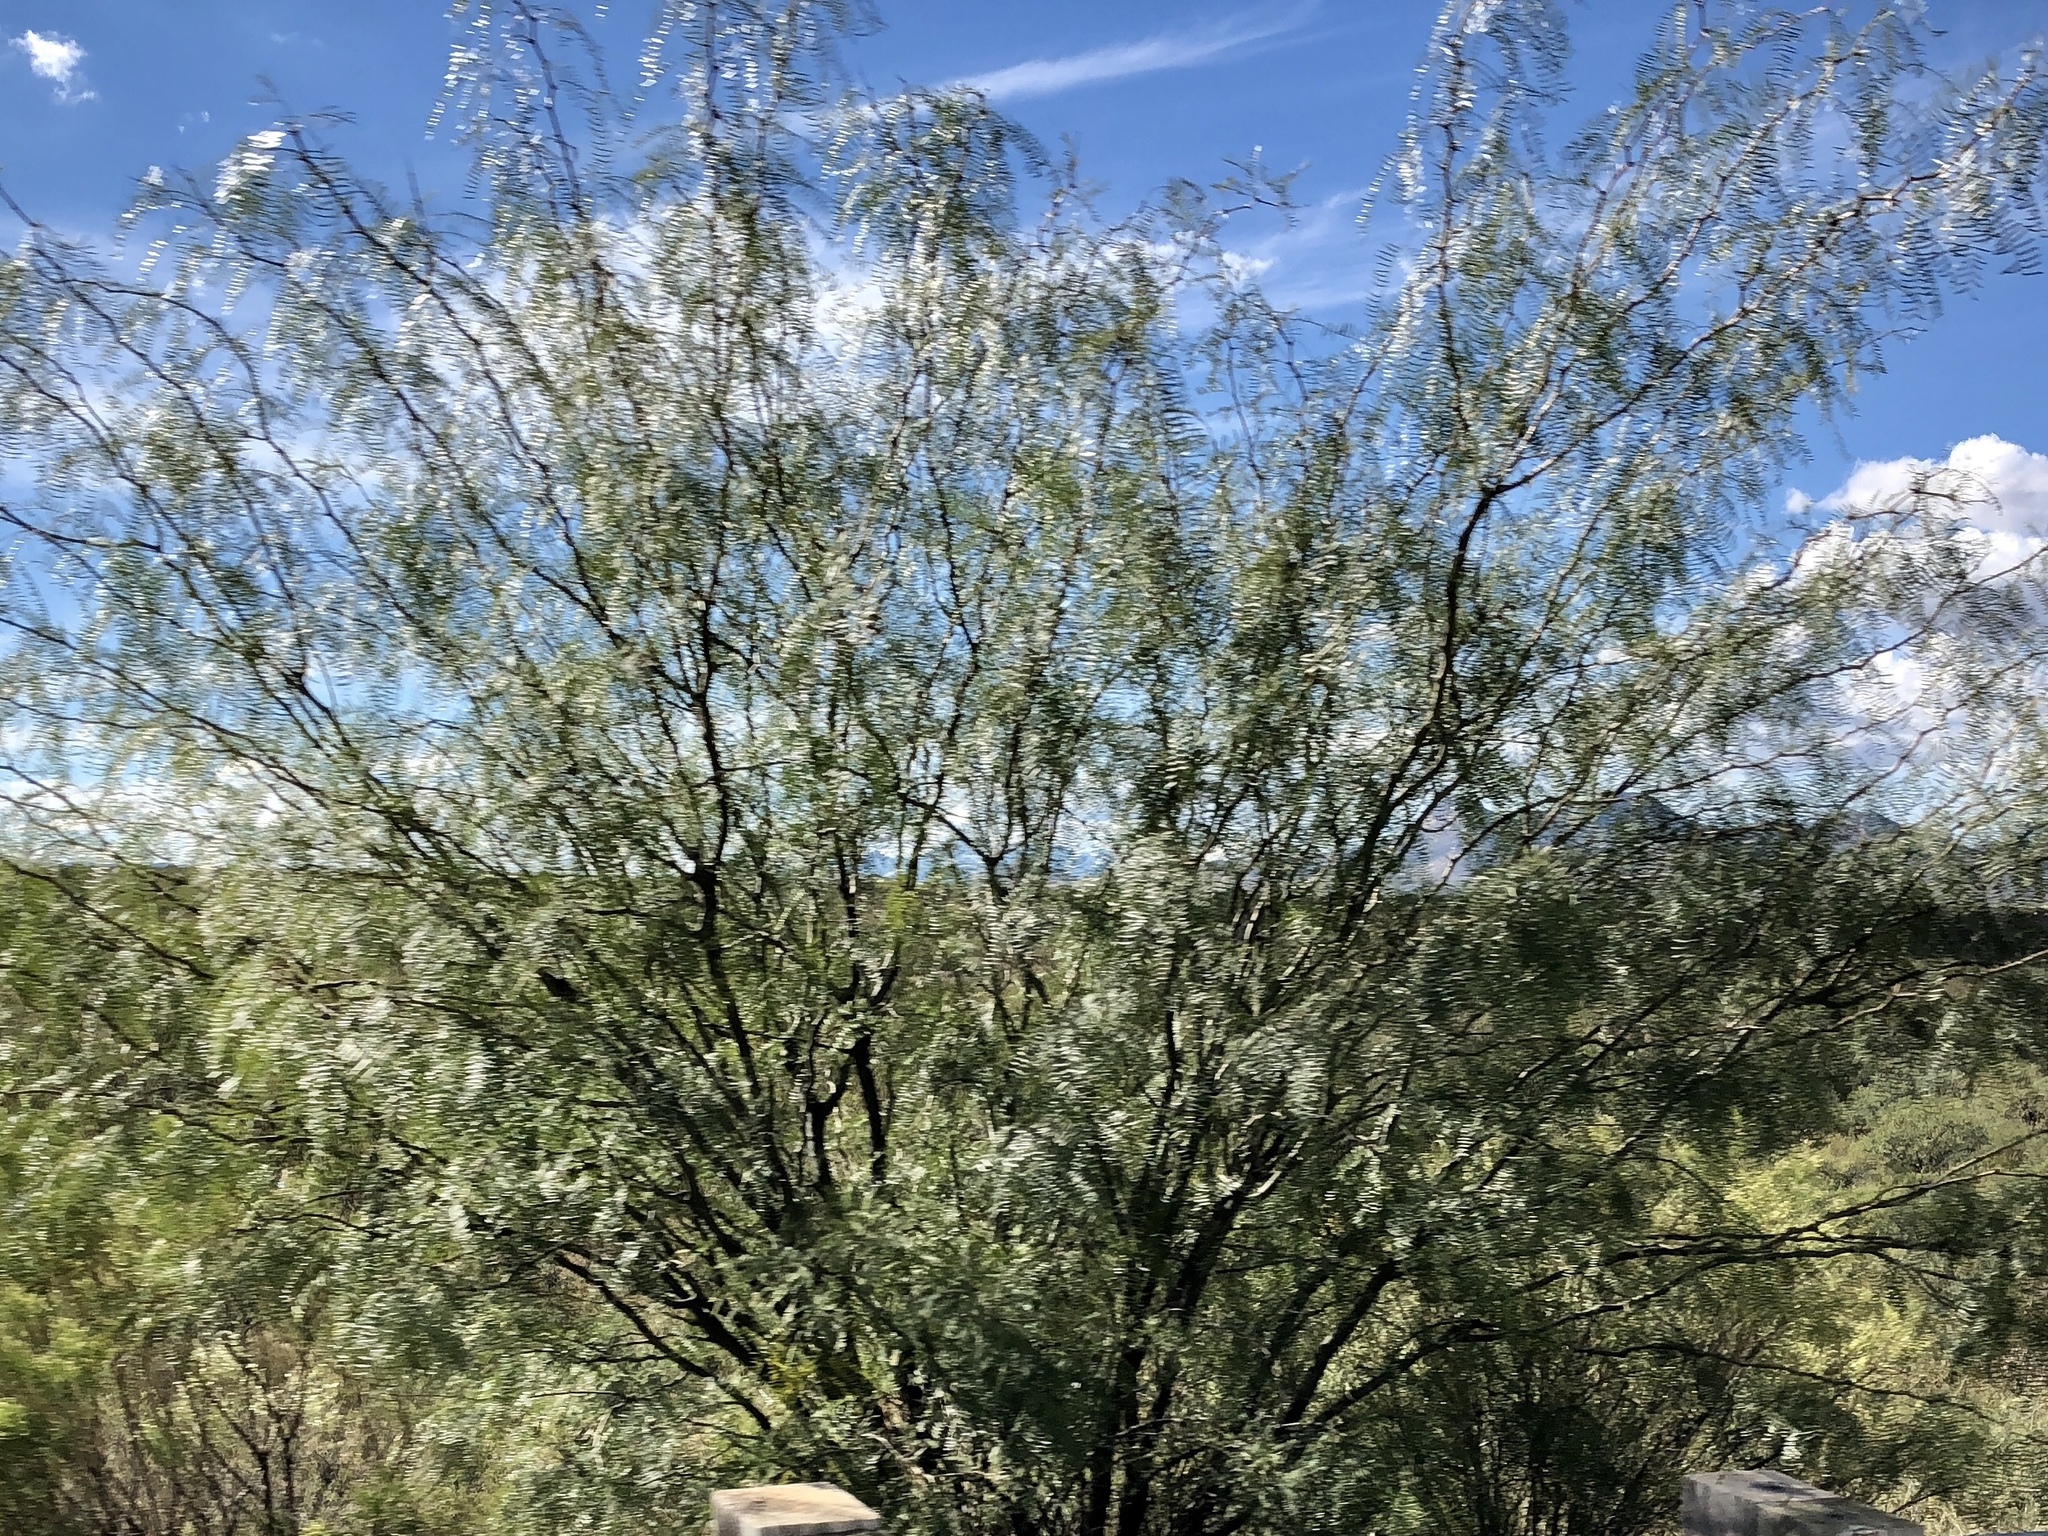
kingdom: Plantae
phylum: Tracheophyta
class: Magnoliopsida
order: Fabales
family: Fabaceae
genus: Prosopis
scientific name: Prosopis glandulosa
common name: Honey mesquite
